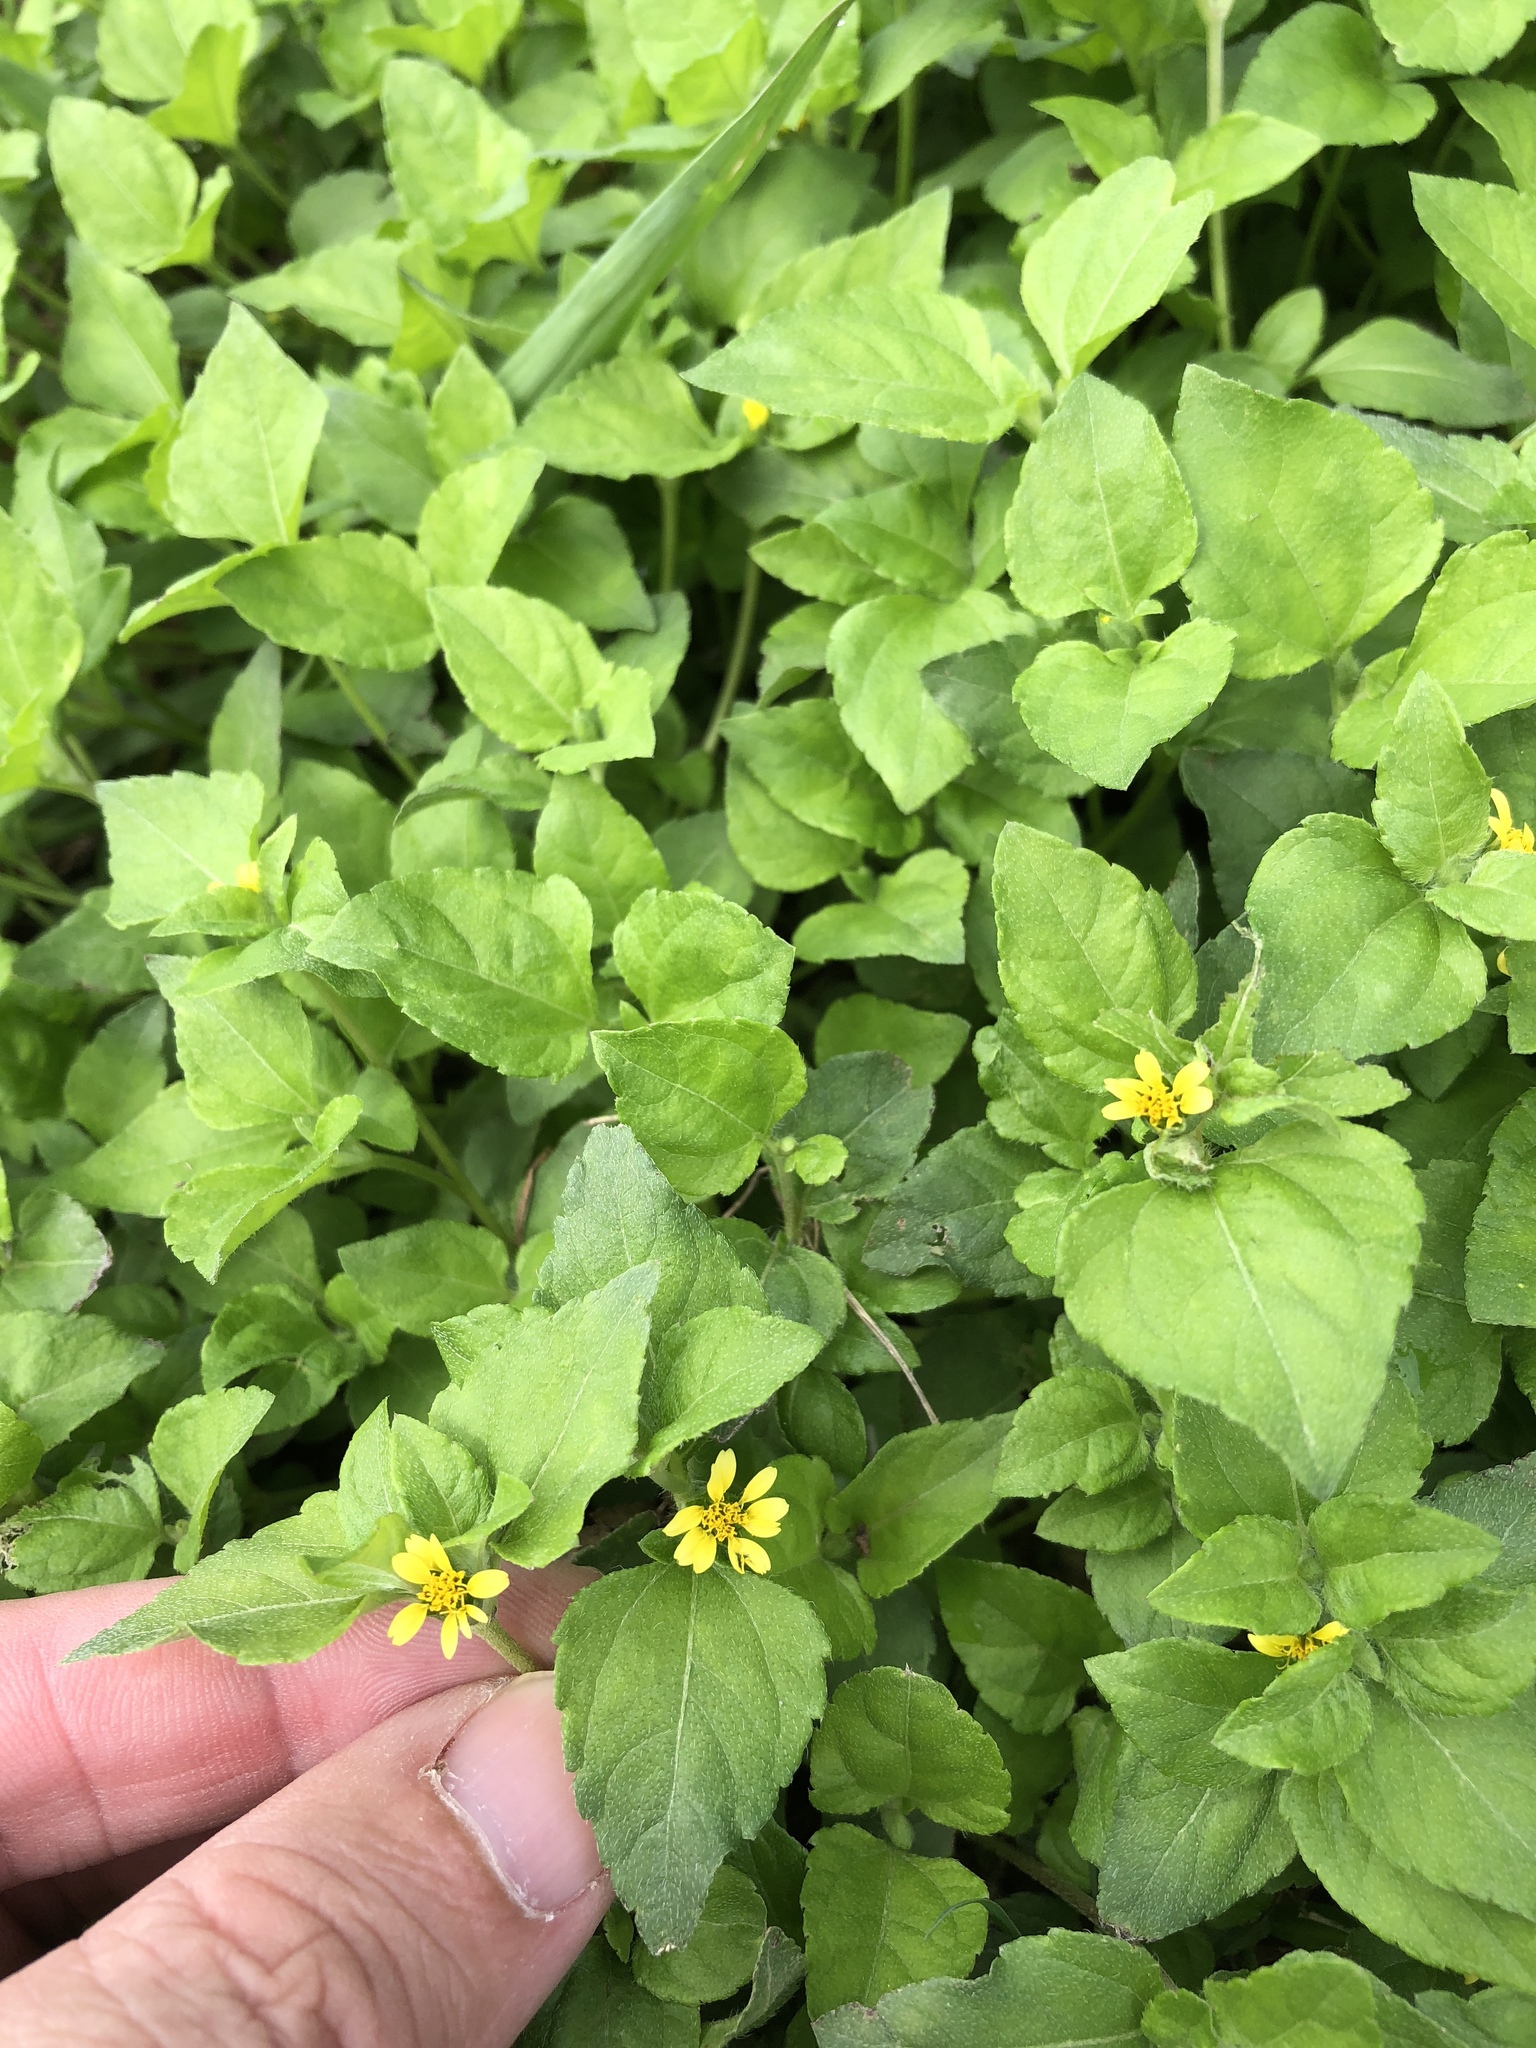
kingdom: Plantae
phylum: Tracheophyta
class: Magnoliopsida
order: Asterales
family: Asteraceae
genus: Calyptocarpus
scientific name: Calyptocarpus vialis
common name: Straggler daisy
